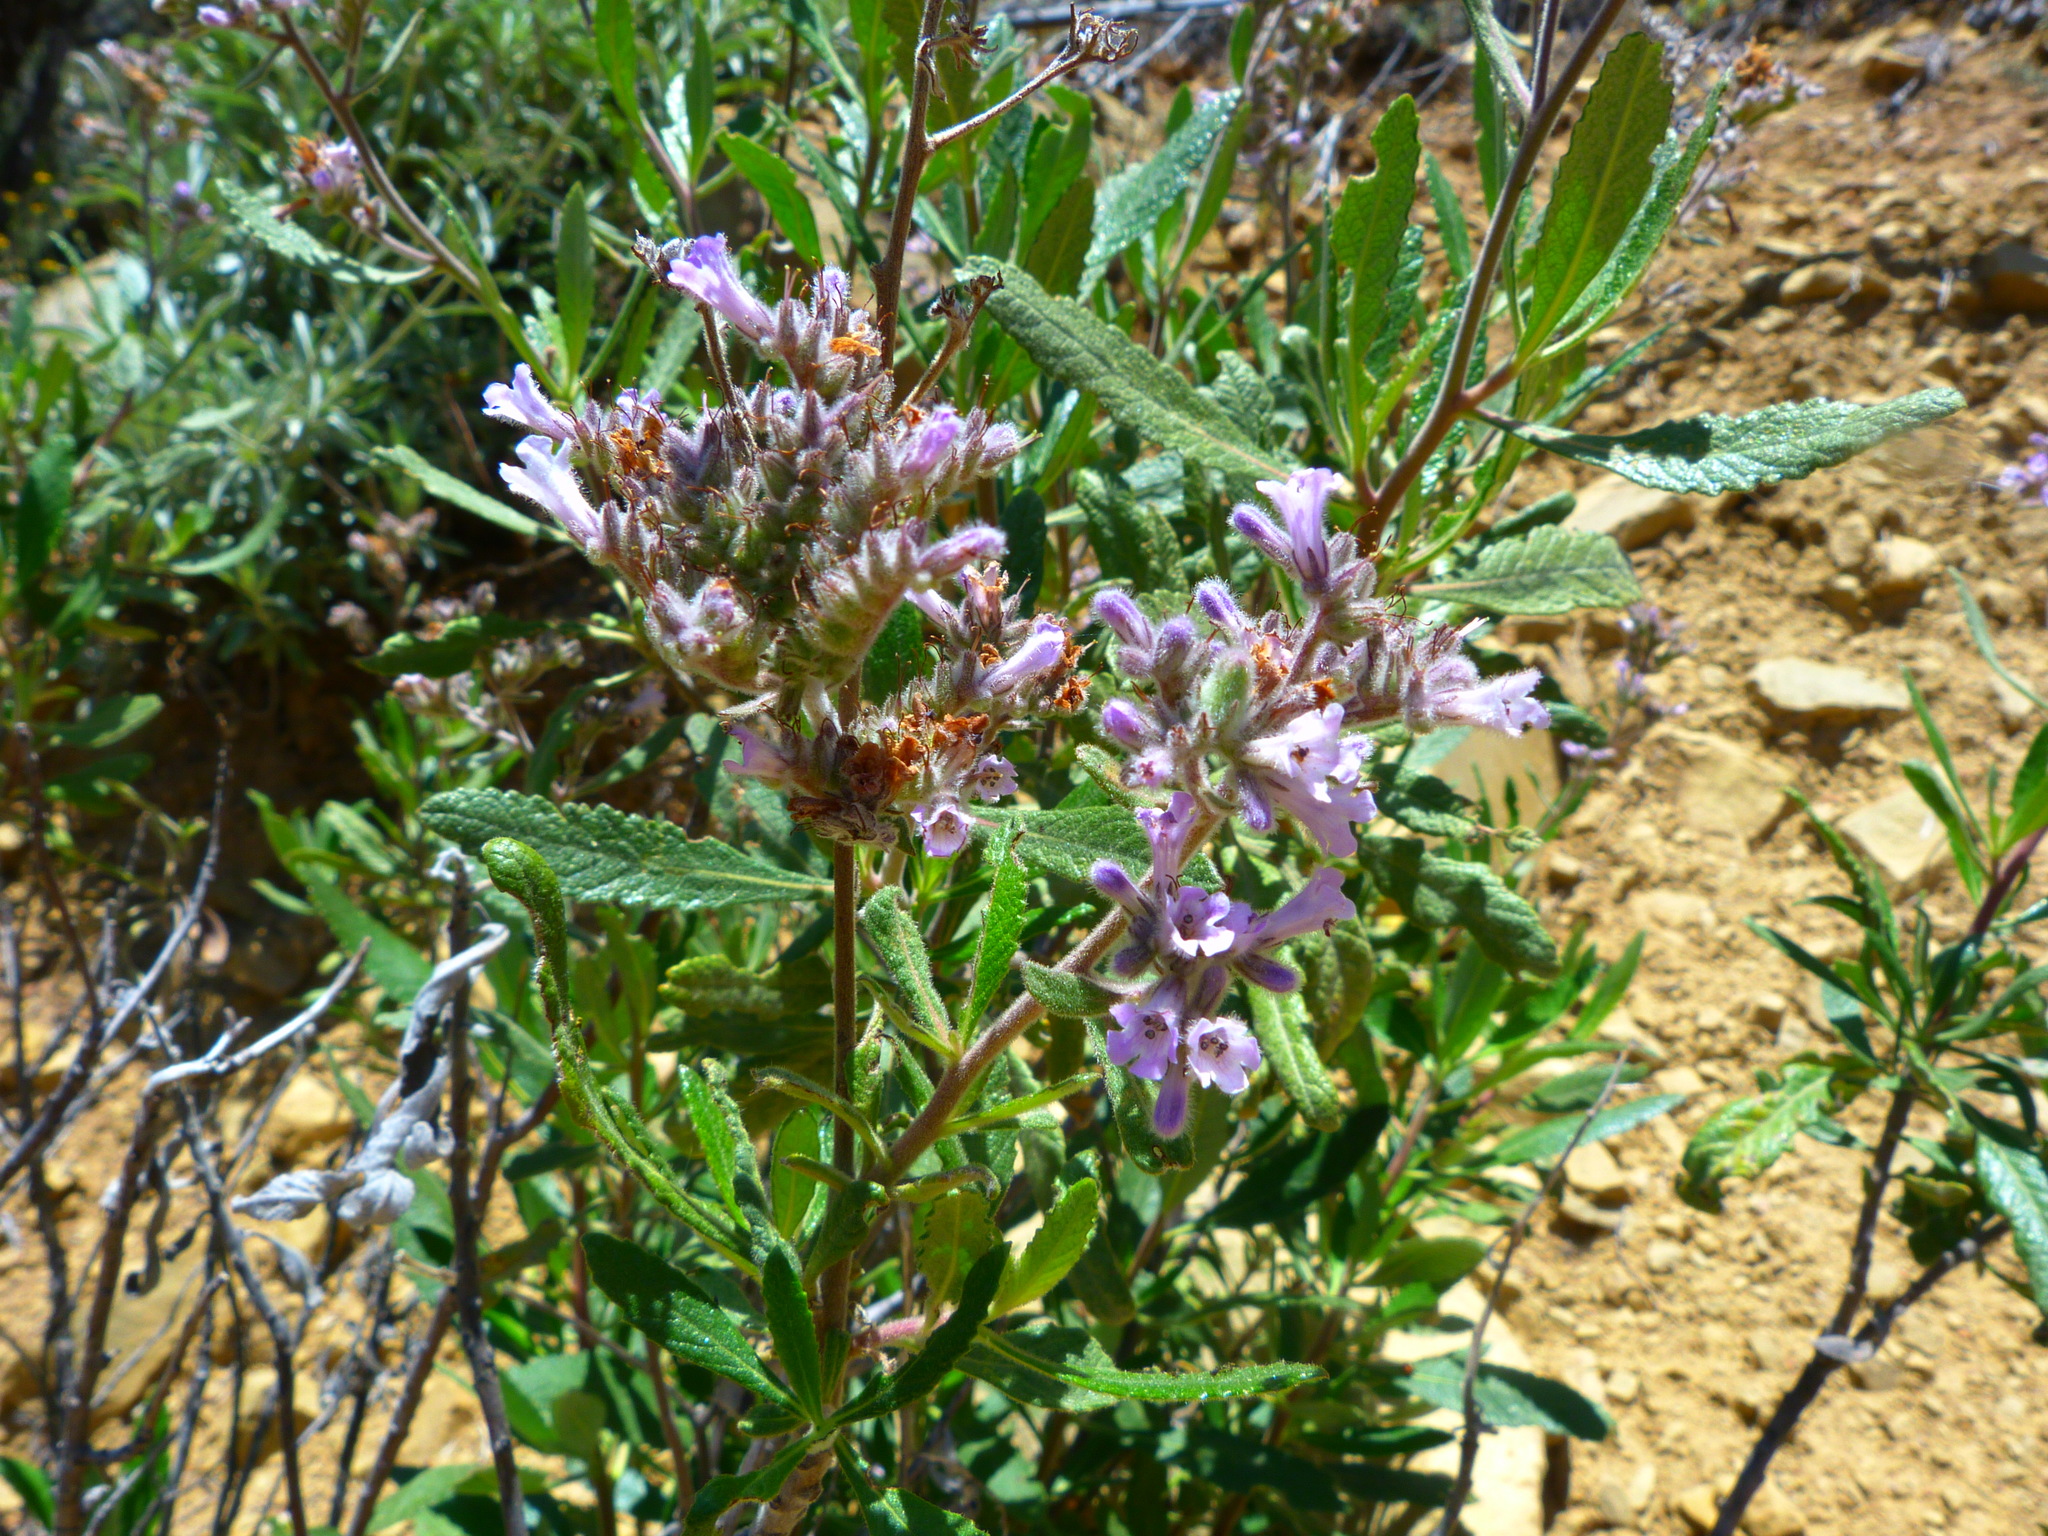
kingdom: Plantae
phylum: Tracheophyta
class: Magnoliopsida
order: Boraginales
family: Namaceae
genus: Eriodictyon
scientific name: Eriodictyon crassifolium
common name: Thick-leaf yerba-santa
